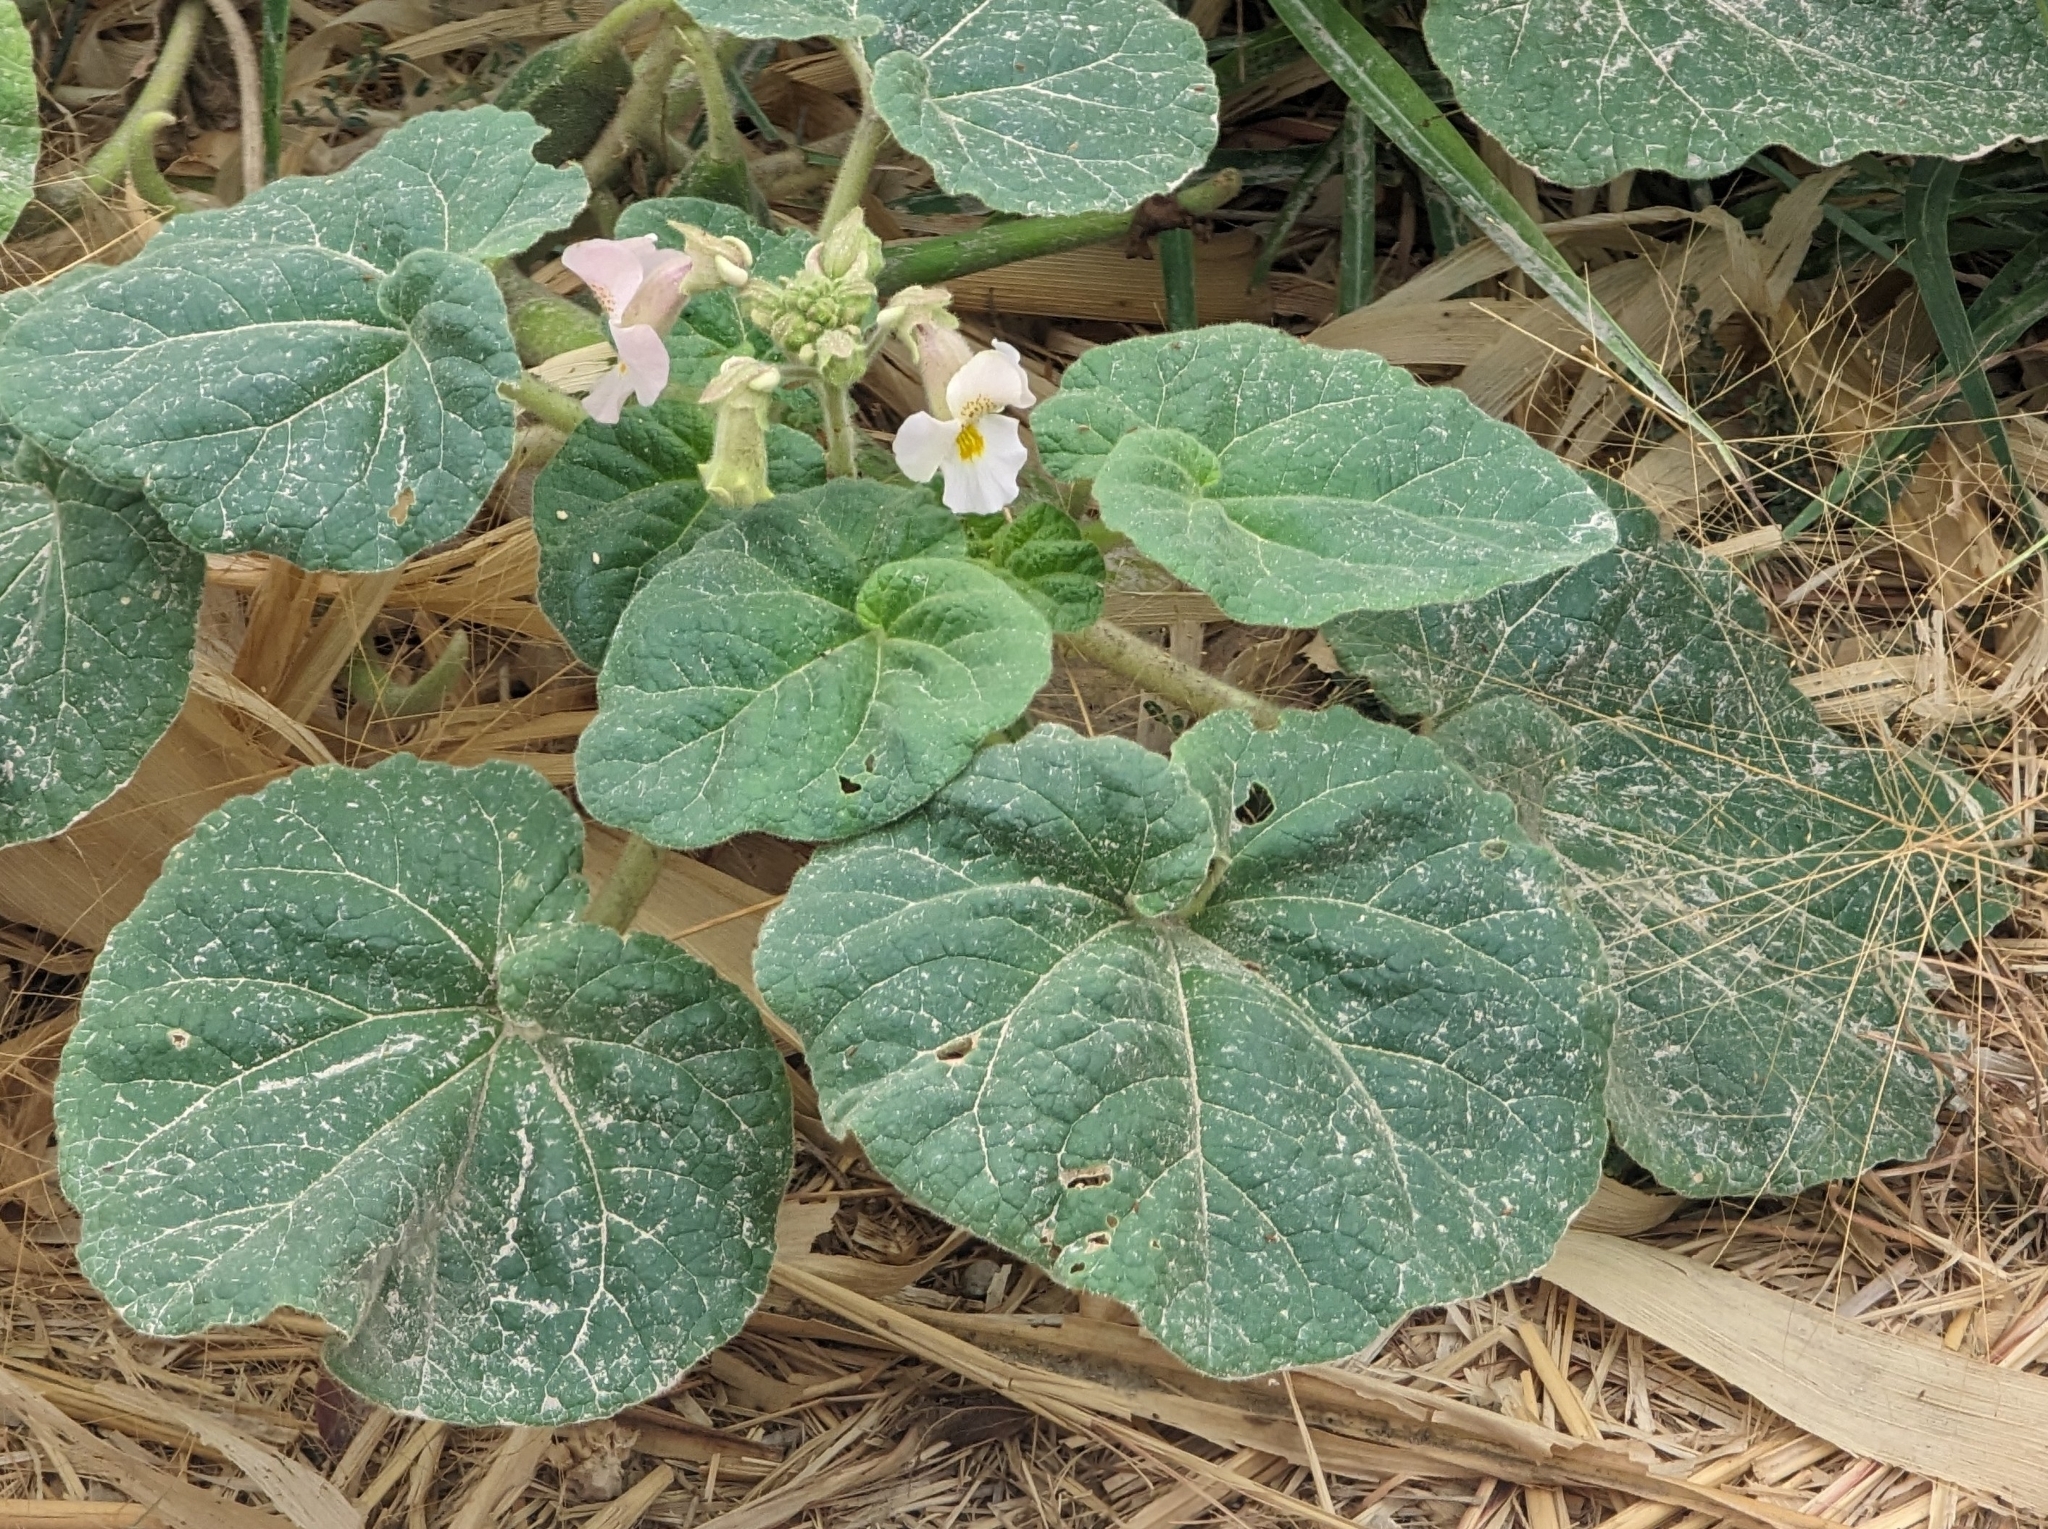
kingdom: Plantae
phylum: Tracheophyta
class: Magnoliopsida
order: Lamiales
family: Martyniaceae
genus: Proboscidea
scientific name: Proboscidea louisianica
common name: Elephant tusks
